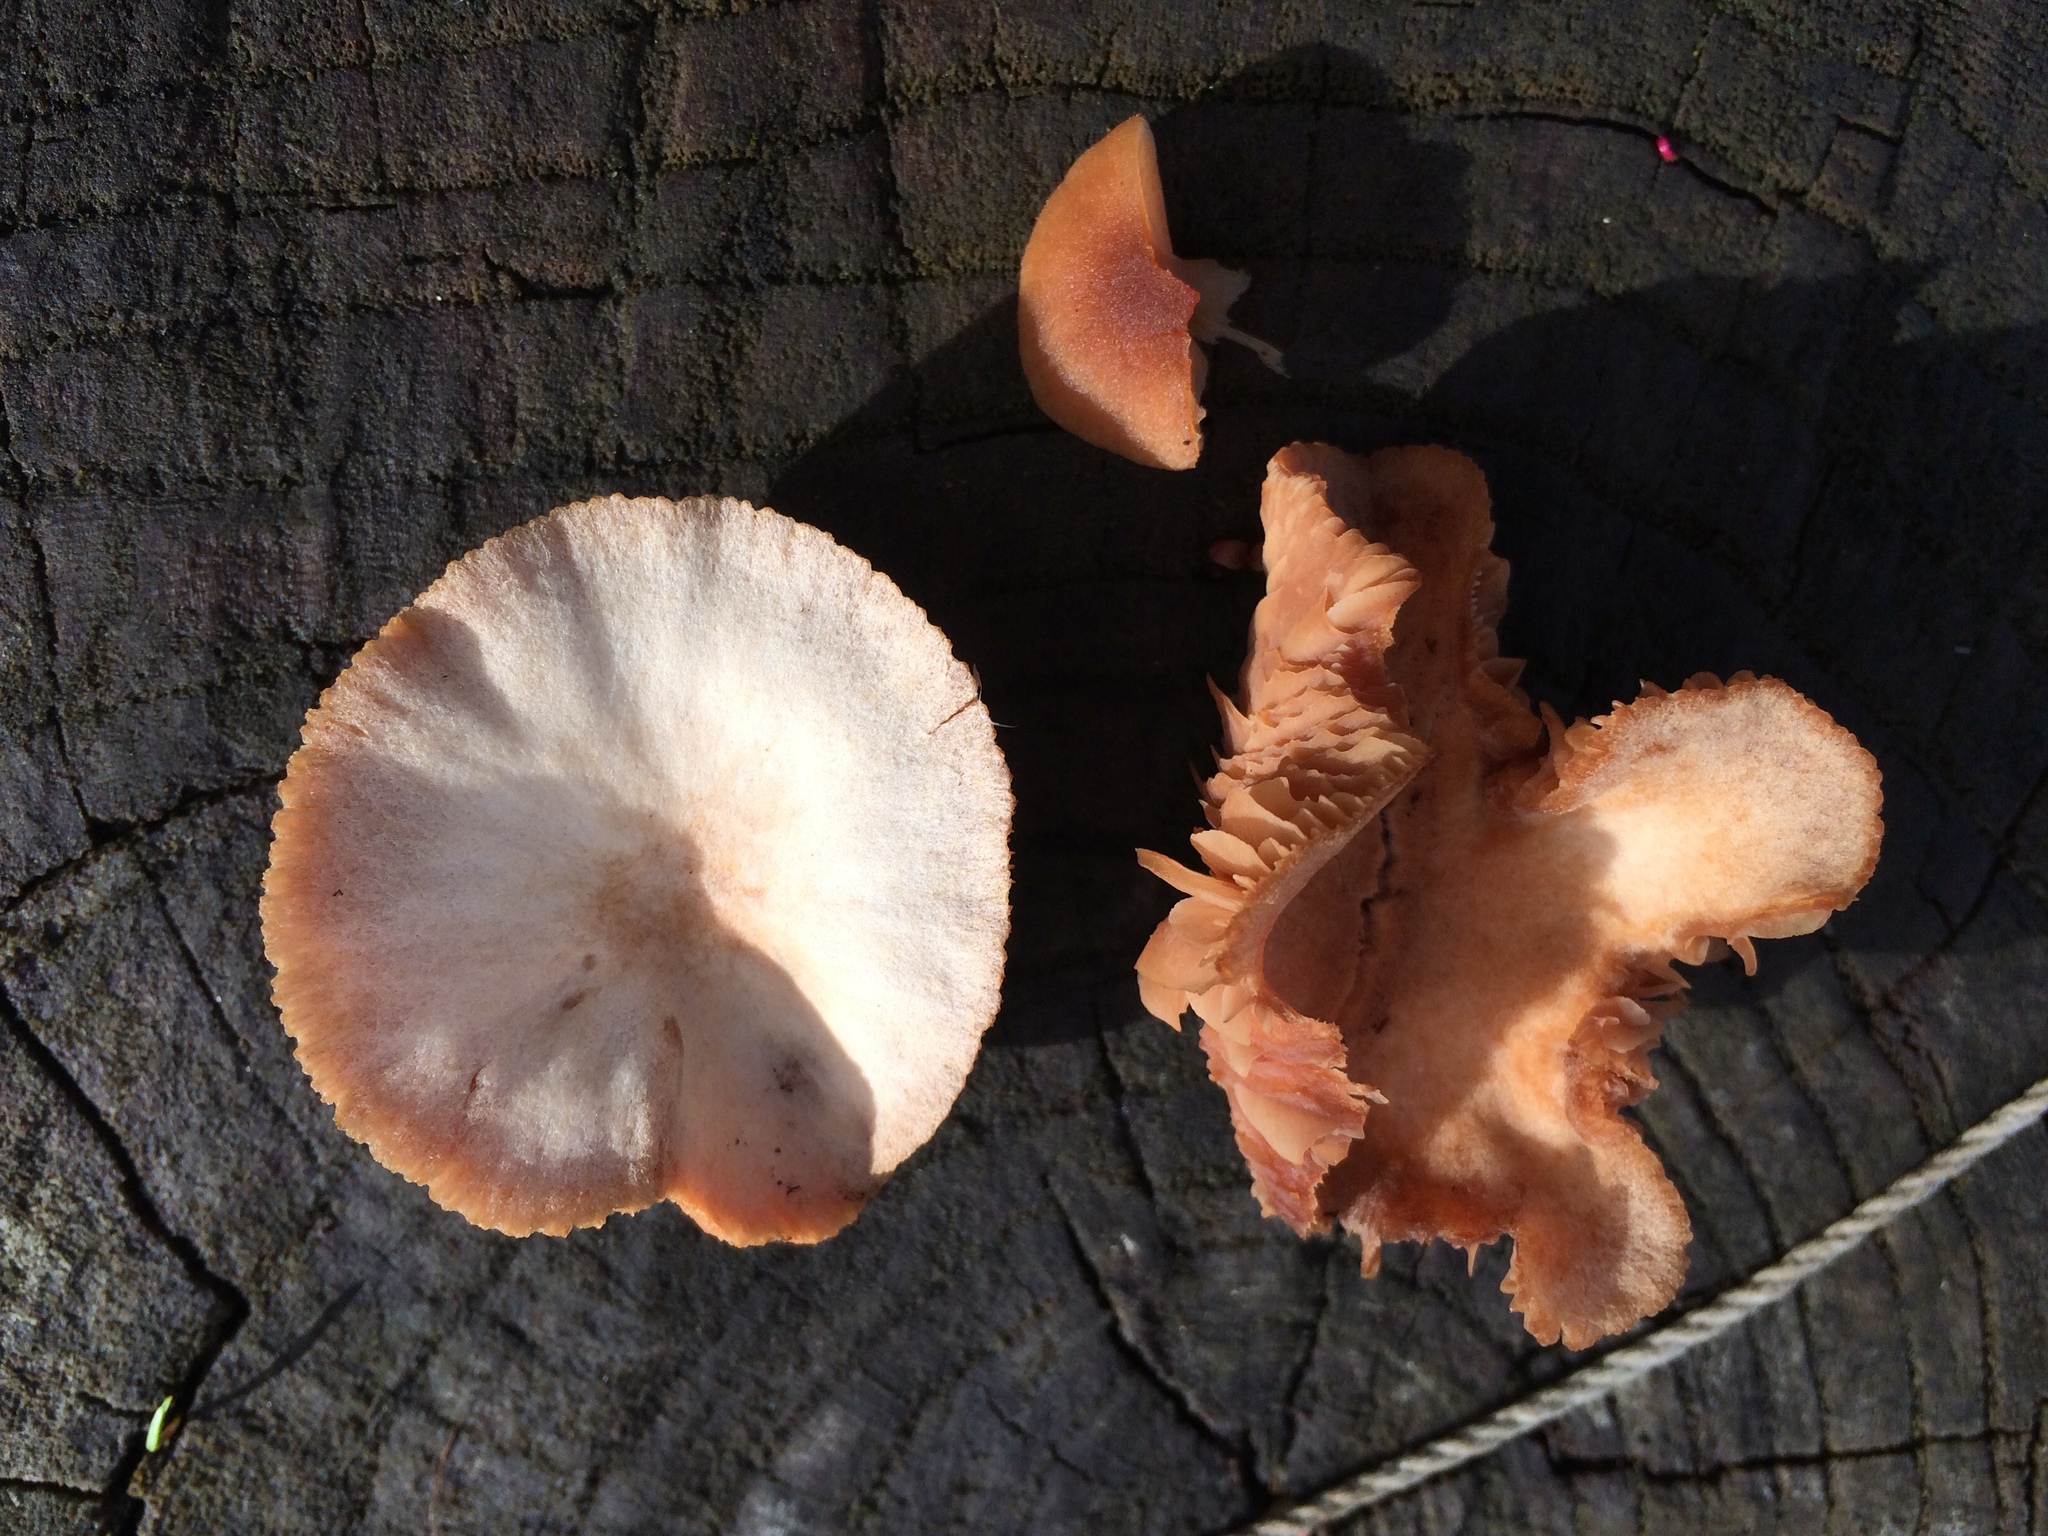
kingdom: Fungi
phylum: Basidiomycota
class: Agaricomycetes
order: Agaricales
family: Tubariaceae
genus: Tubaria
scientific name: Tubaria furfuracea
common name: Scurfy twiglet
